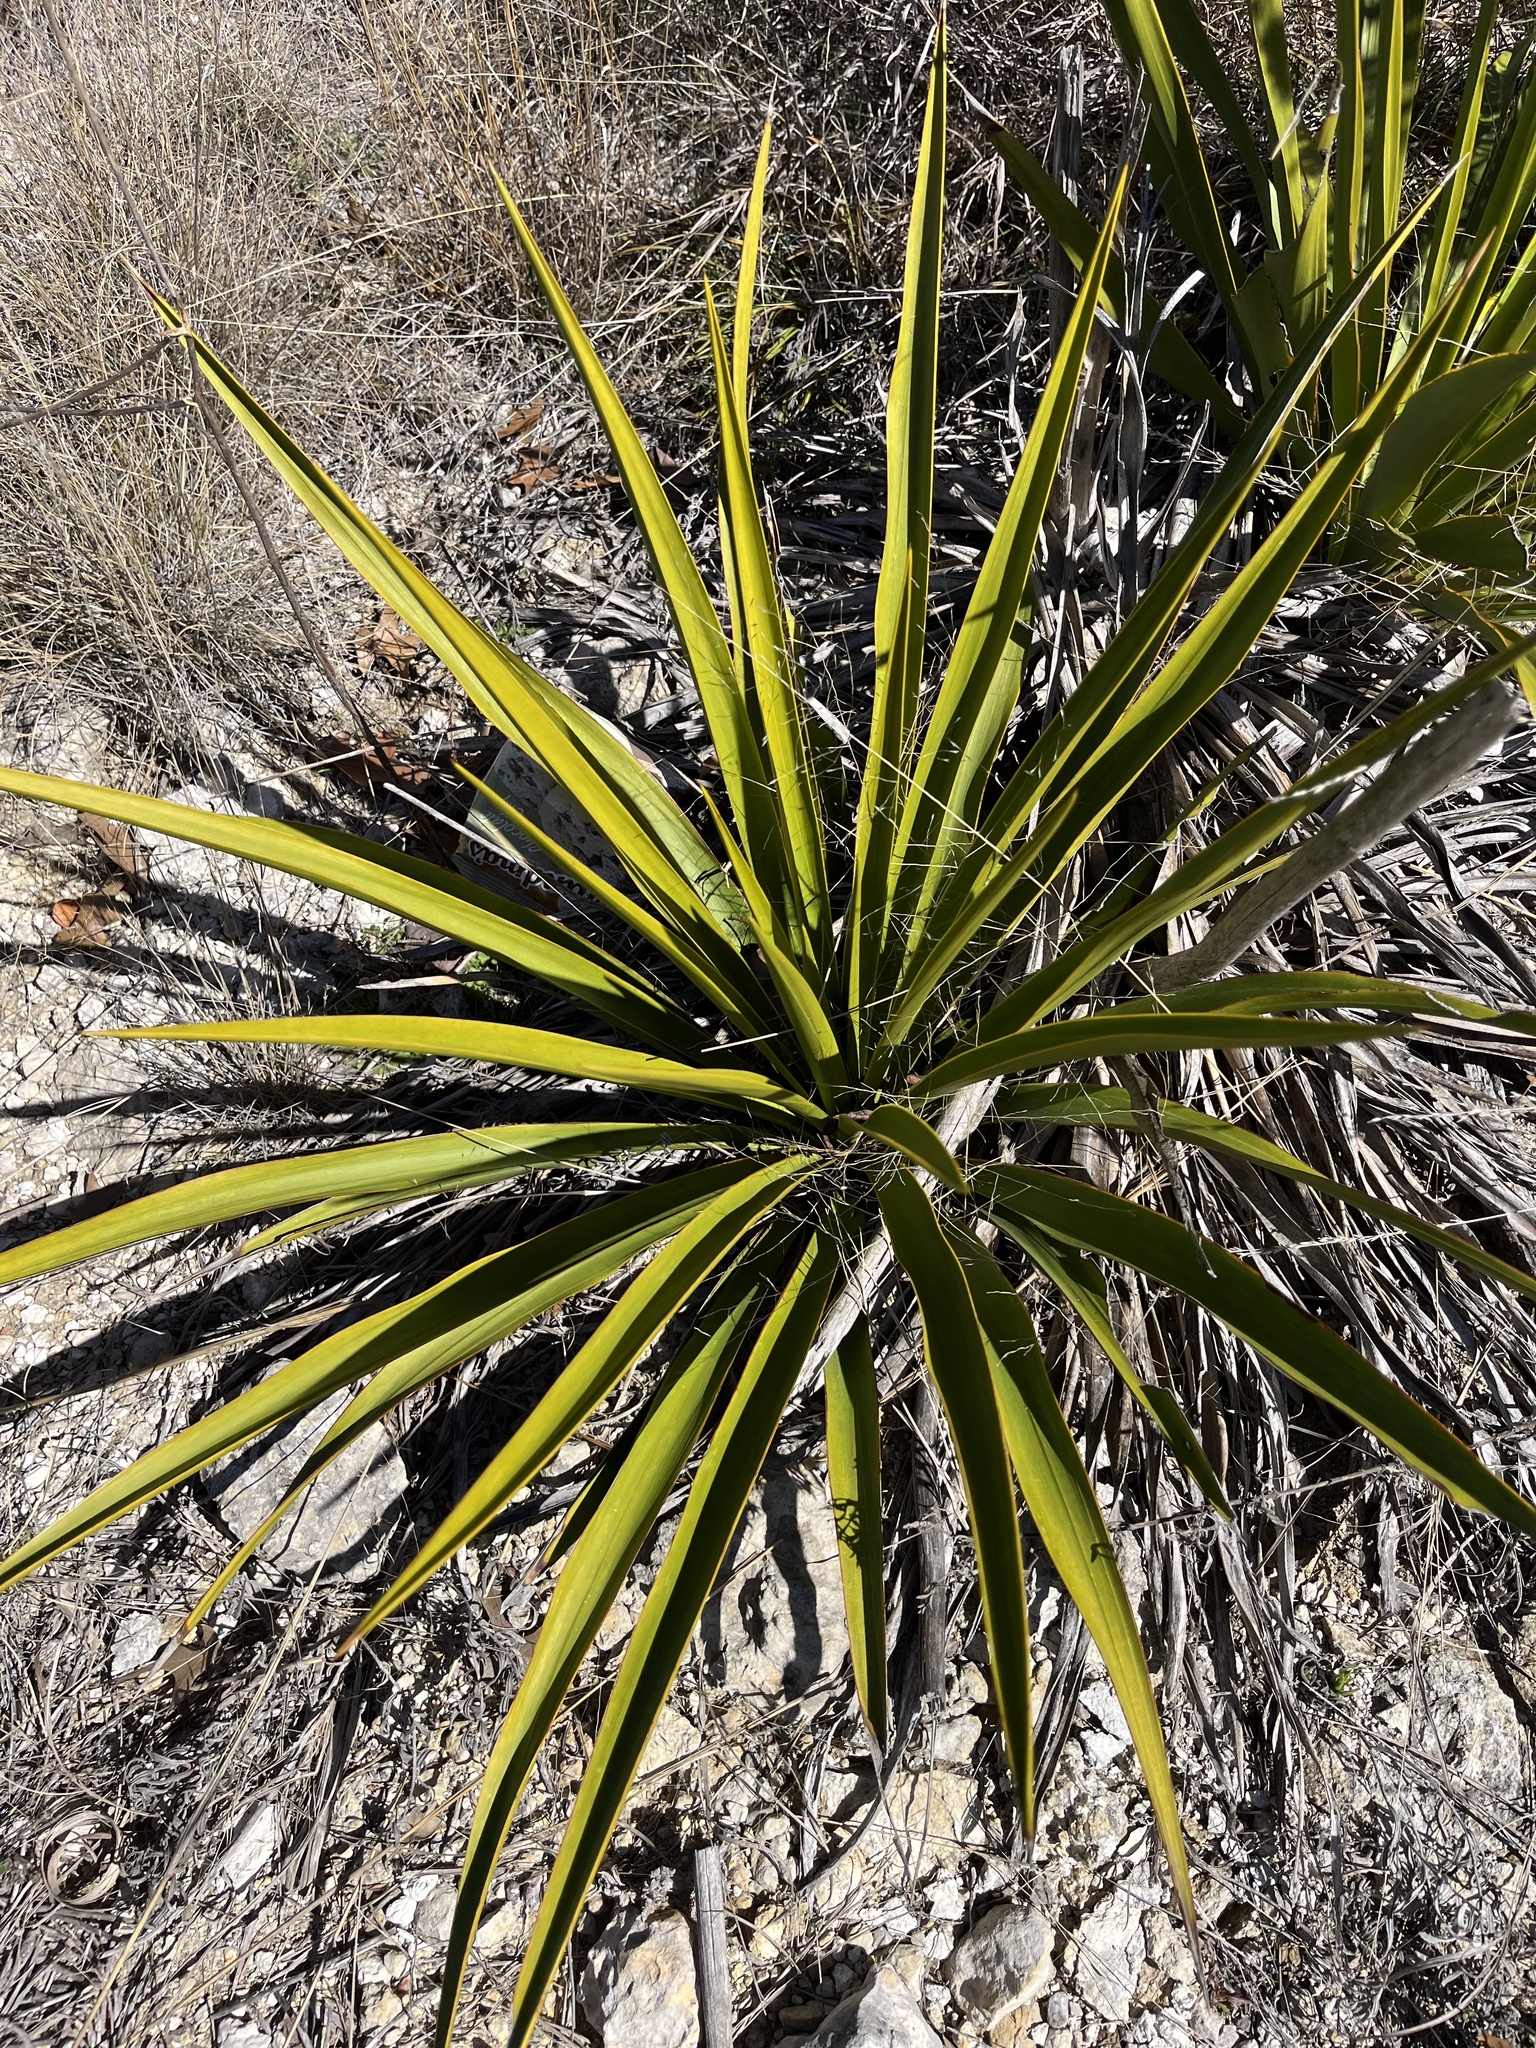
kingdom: Plantae
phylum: Tracheophyta
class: Liliopsida
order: Asparagales
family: Asparagaceae
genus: Yucca
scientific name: Yucca rupicola
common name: Twisted-leaf spanish-dagger
